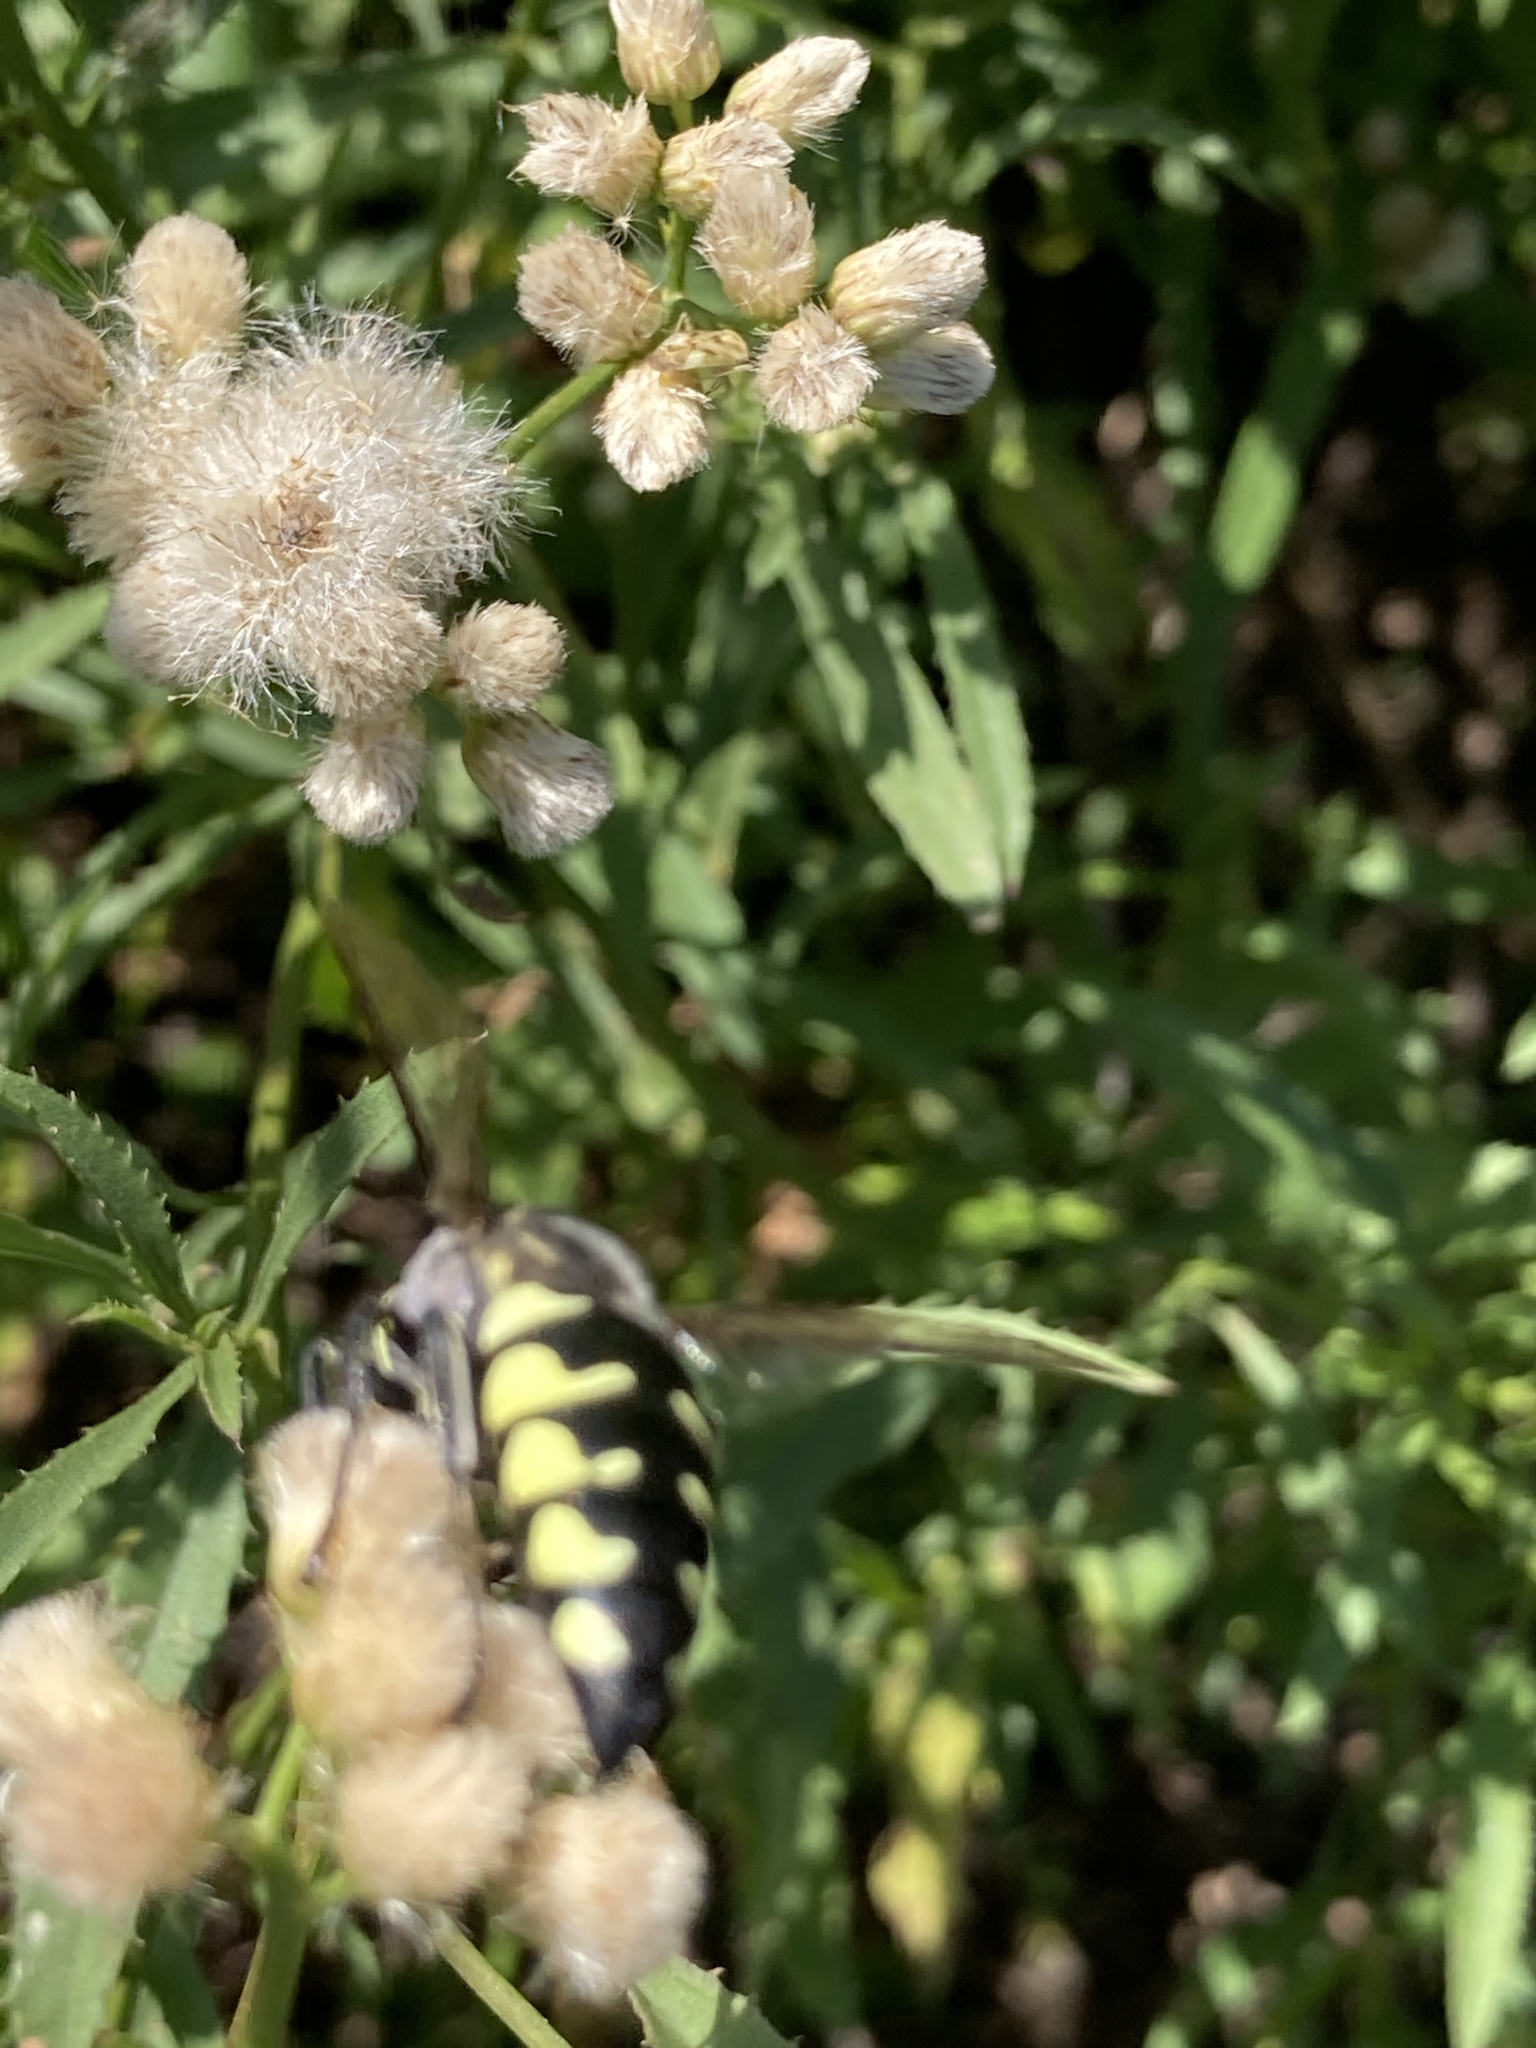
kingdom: Animalia
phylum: Arthropoda
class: Insecta
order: Hymenoptera
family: Crabronidae
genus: Stictia
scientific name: Stictia flexuosa
